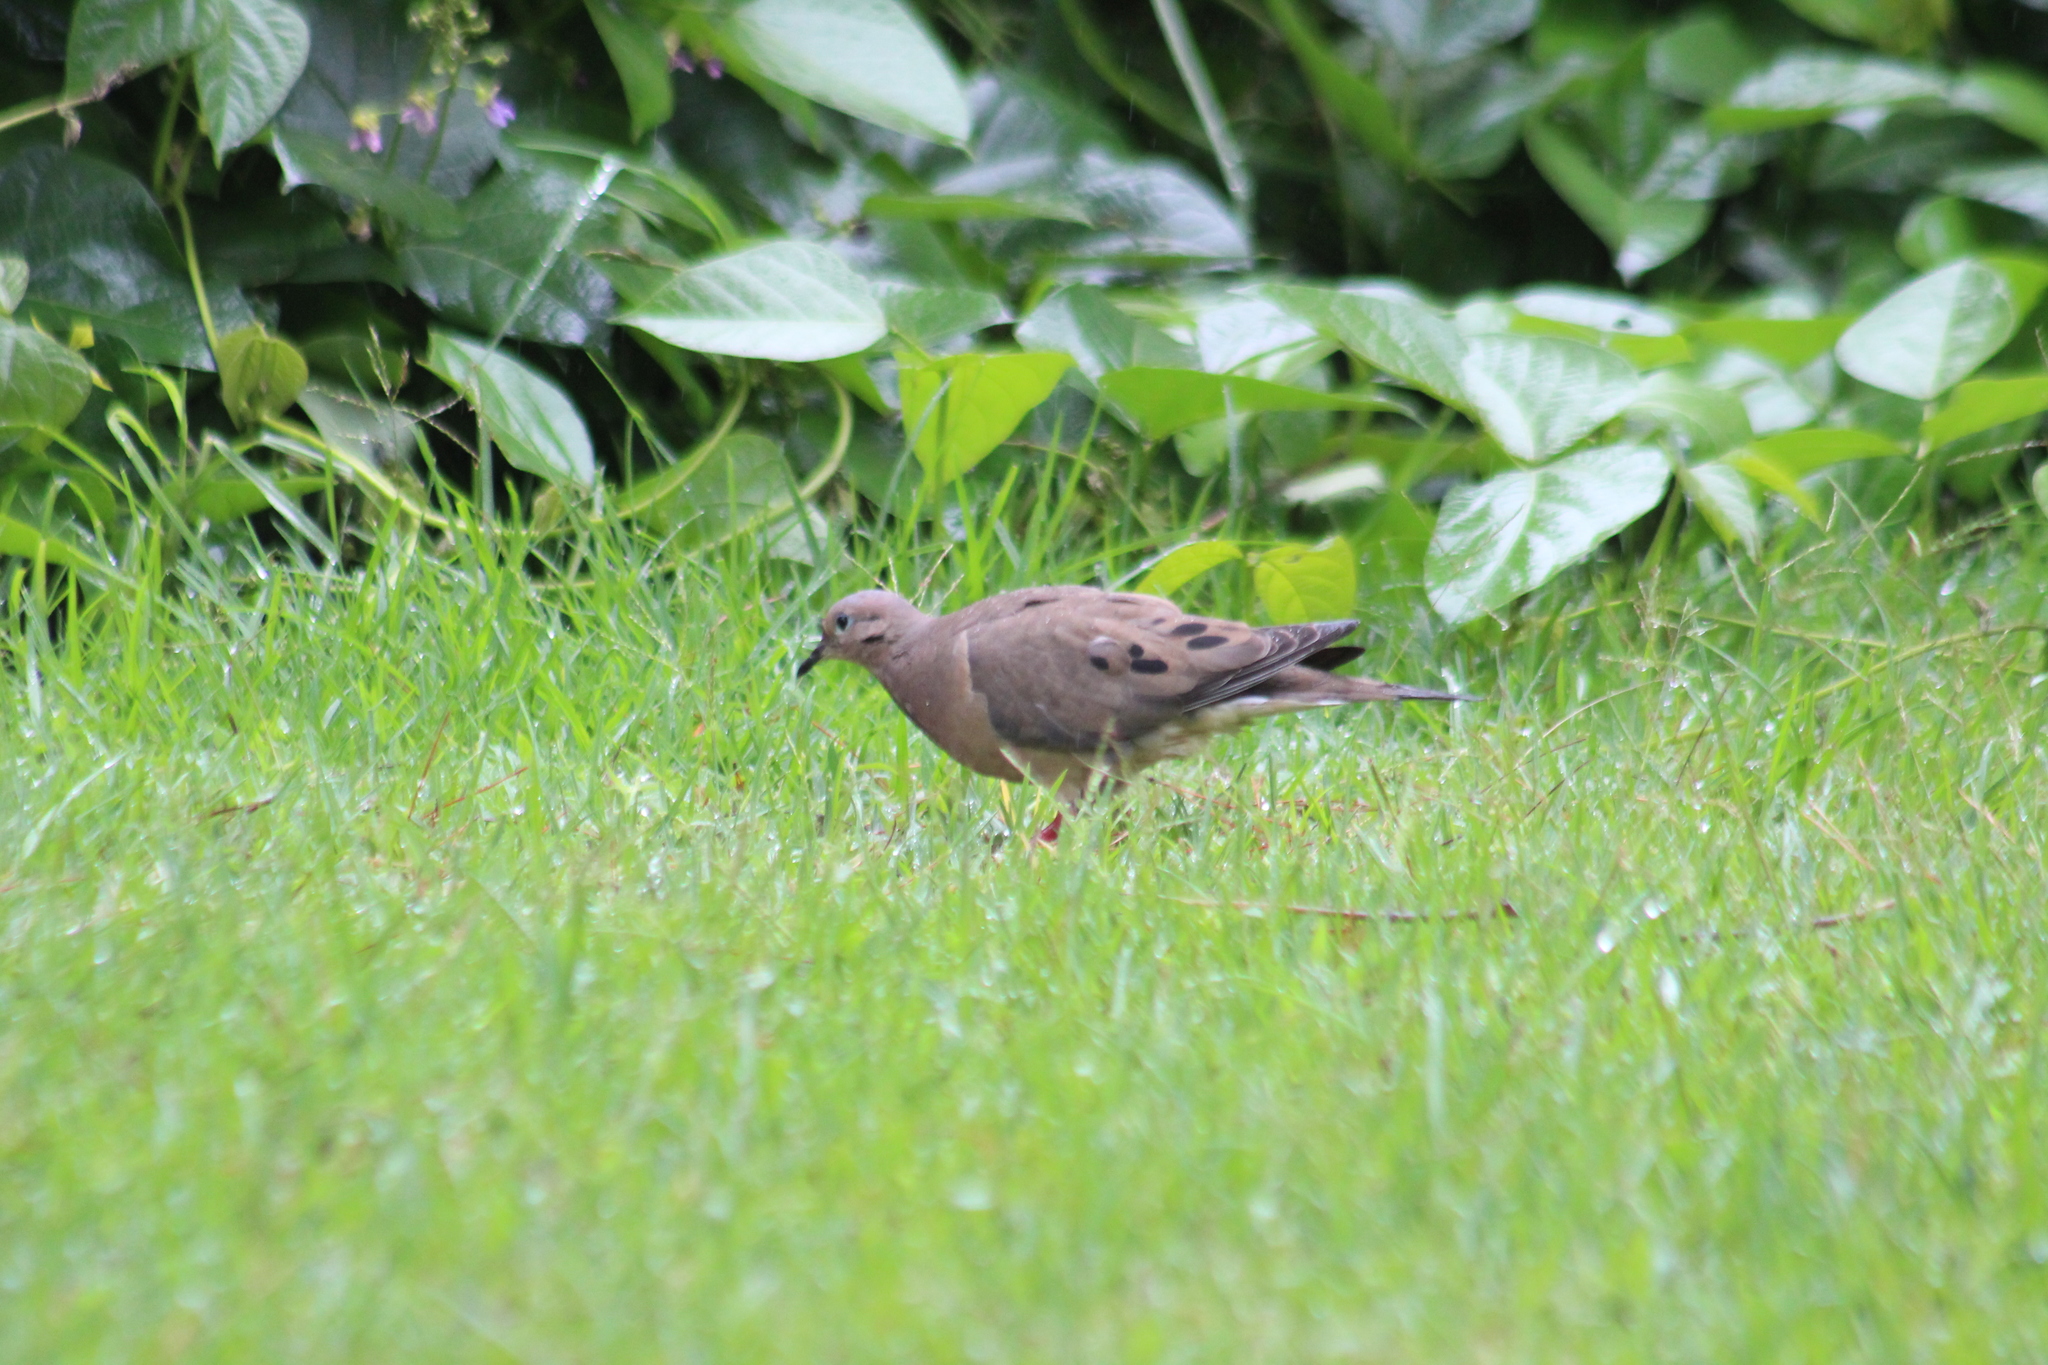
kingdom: Animalia
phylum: Chordata
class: Aves
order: Columbiformes
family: Columbidae
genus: Zenaida
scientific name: Zenaida auriculata
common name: Eared dove
